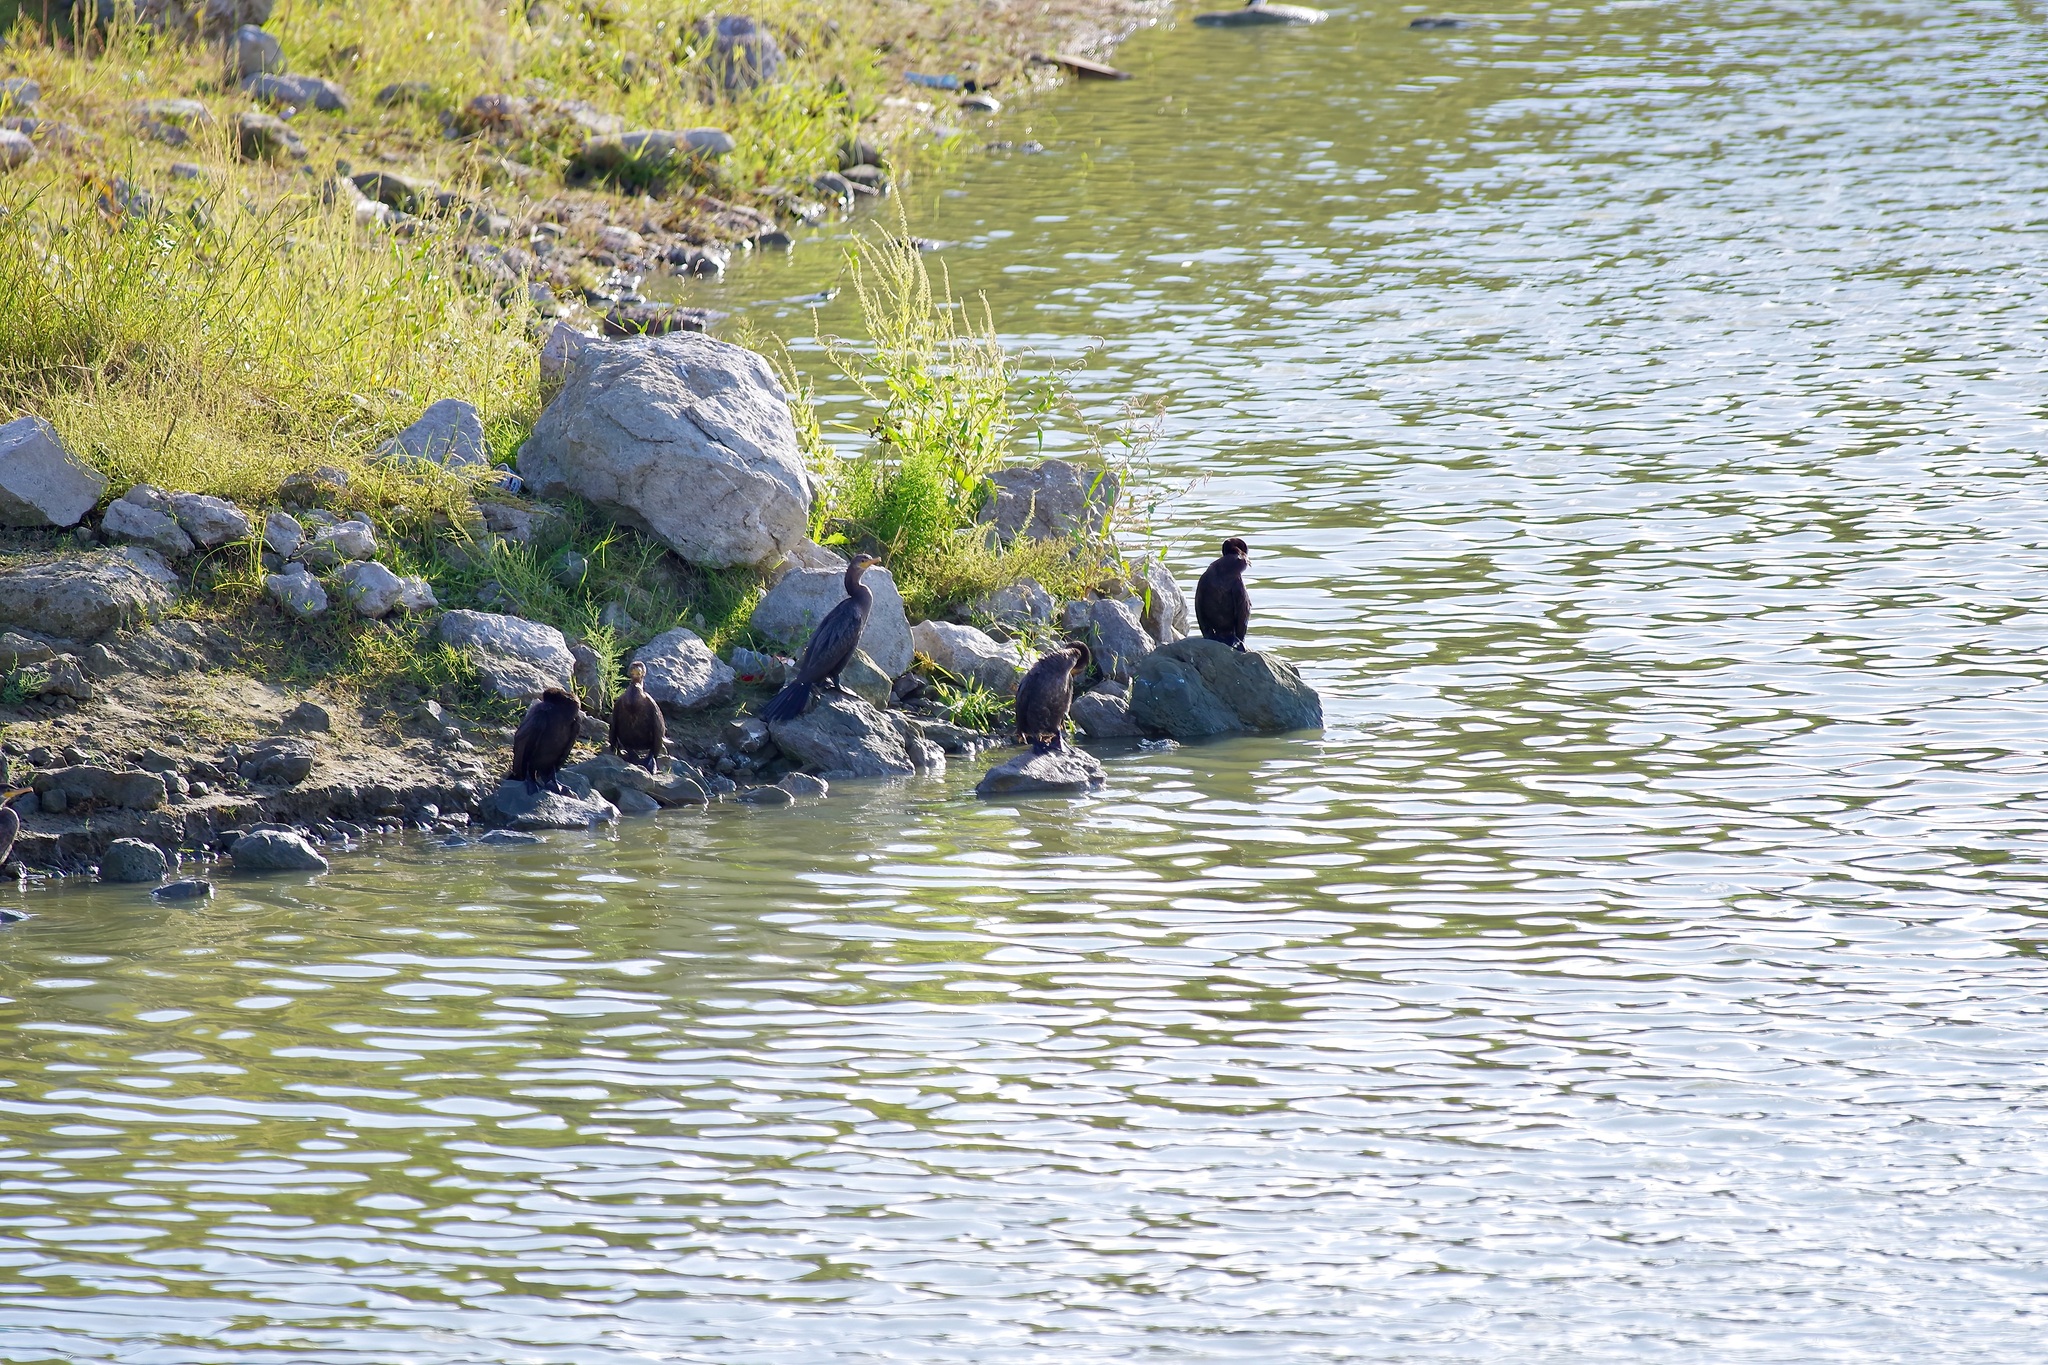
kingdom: Animalia
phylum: Chordata
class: Aves
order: Suliformes
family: Phalacrocoracidae
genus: Phalacrocorax
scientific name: Phalacrocorax brasilianus
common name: Neotropic cormorant
